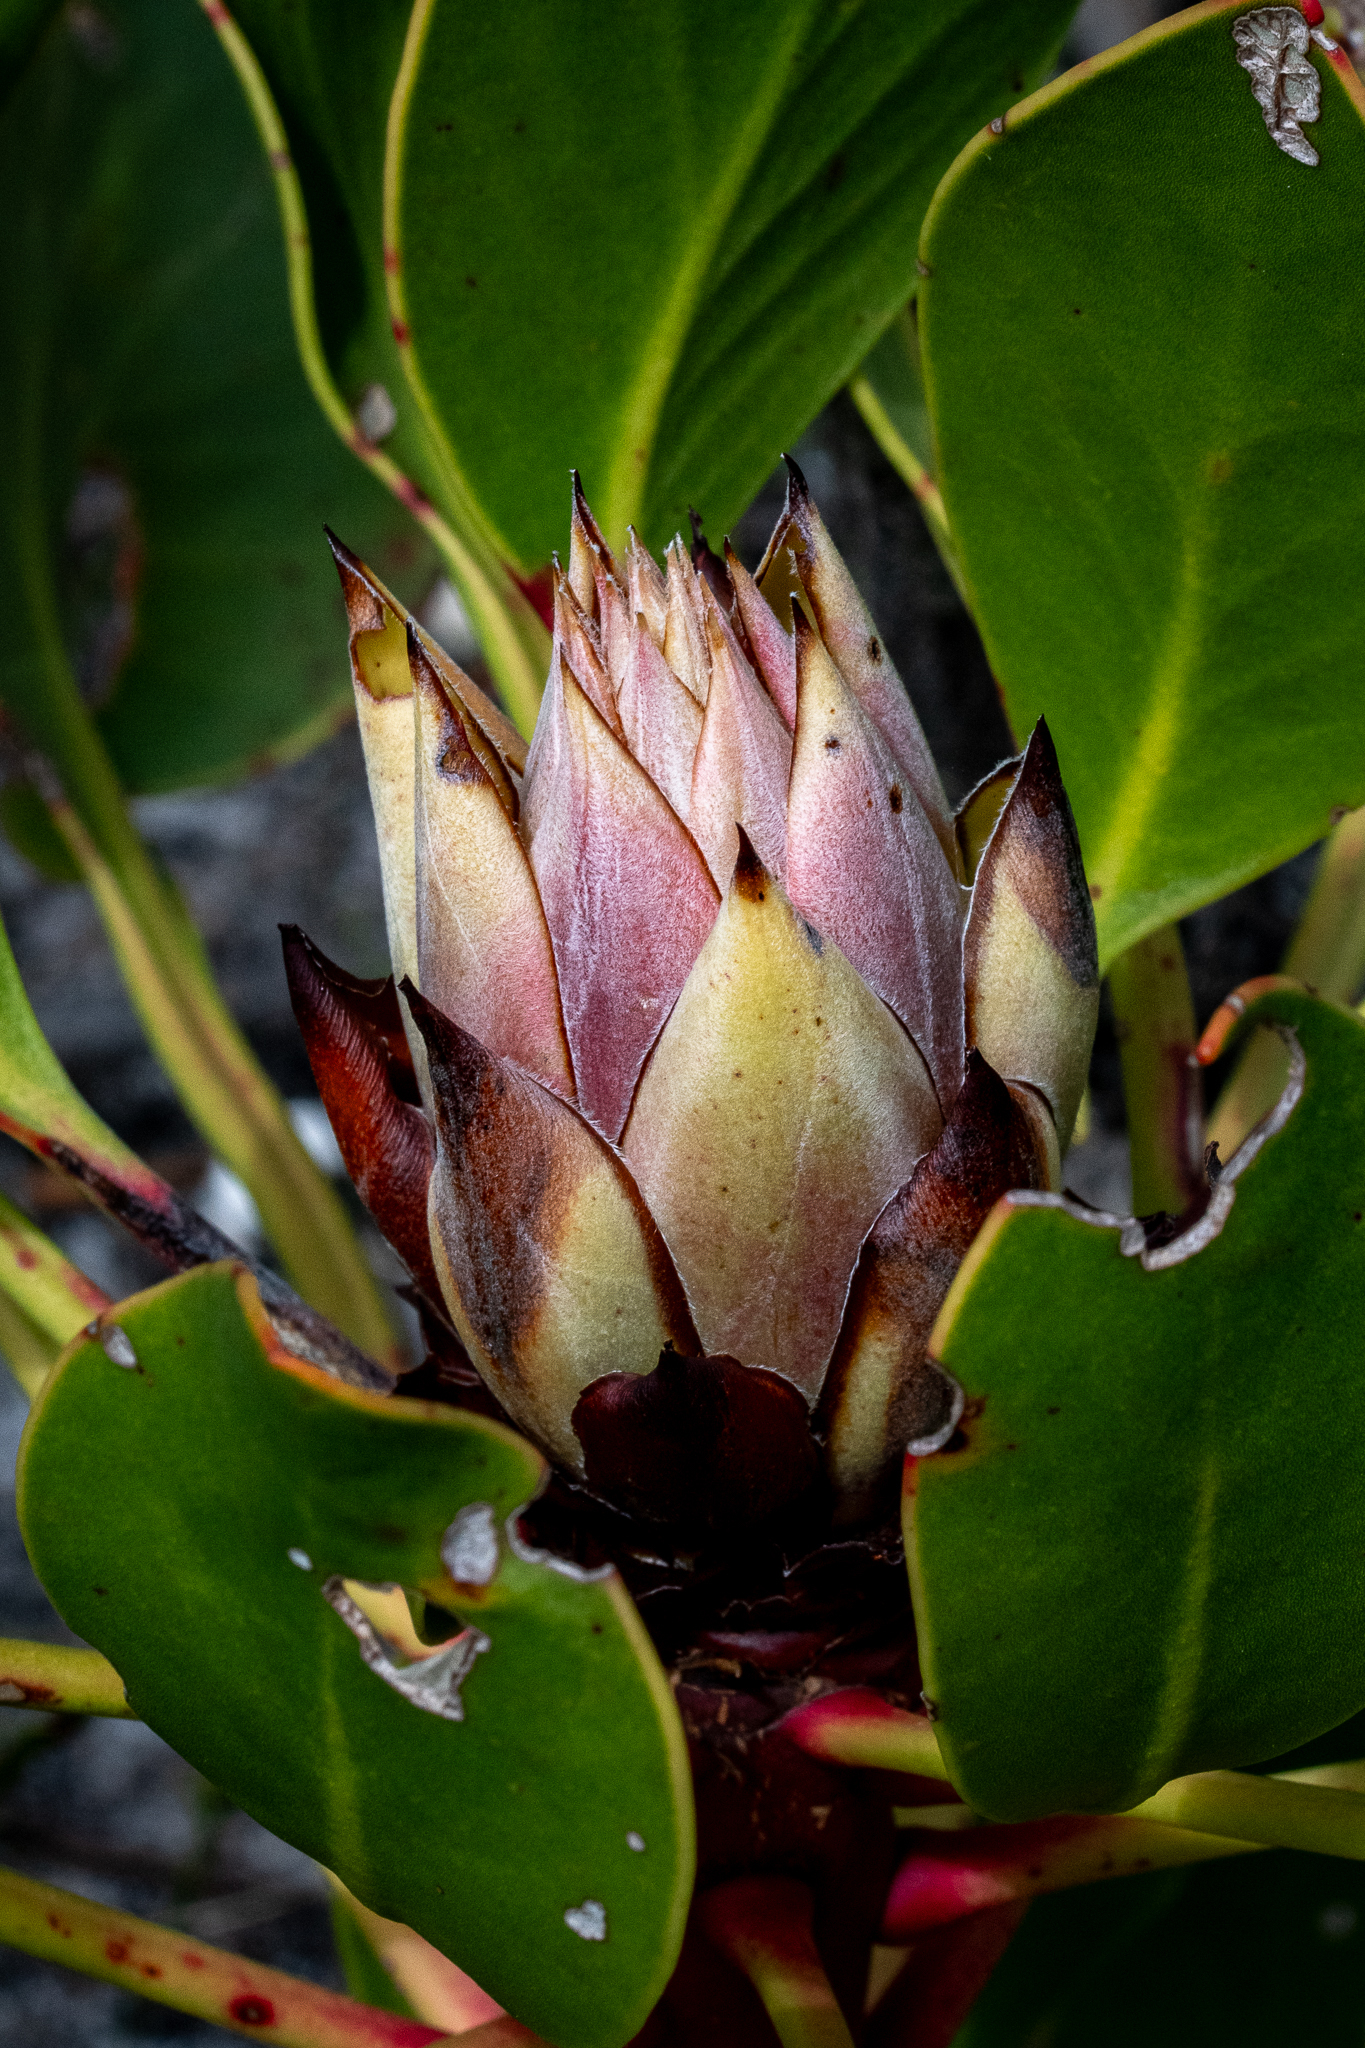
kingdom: Plantae
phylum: Tracheophyta
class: Magnoliopsida
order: Proteales
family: Proteaceae
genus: Protea
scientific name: Protea cynaroides
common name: King protea
